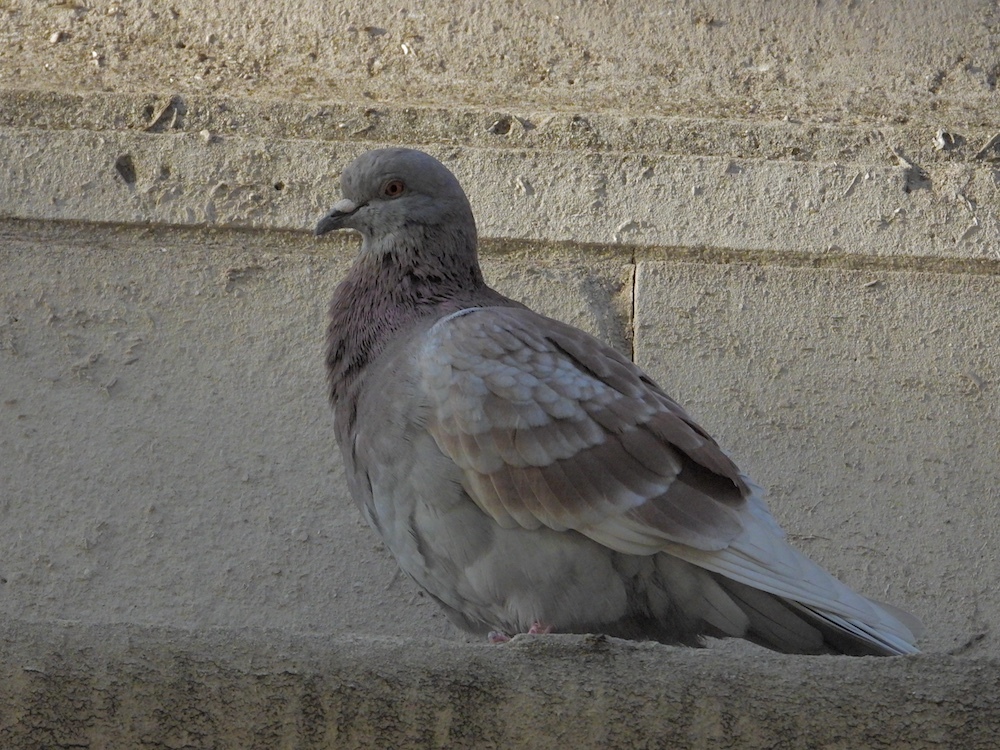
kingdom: Animalia
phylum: Chordata
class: Aves
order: Columbiformes
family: Columbidae
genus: Columba
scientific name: Columba livia
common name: Rock pigeon
